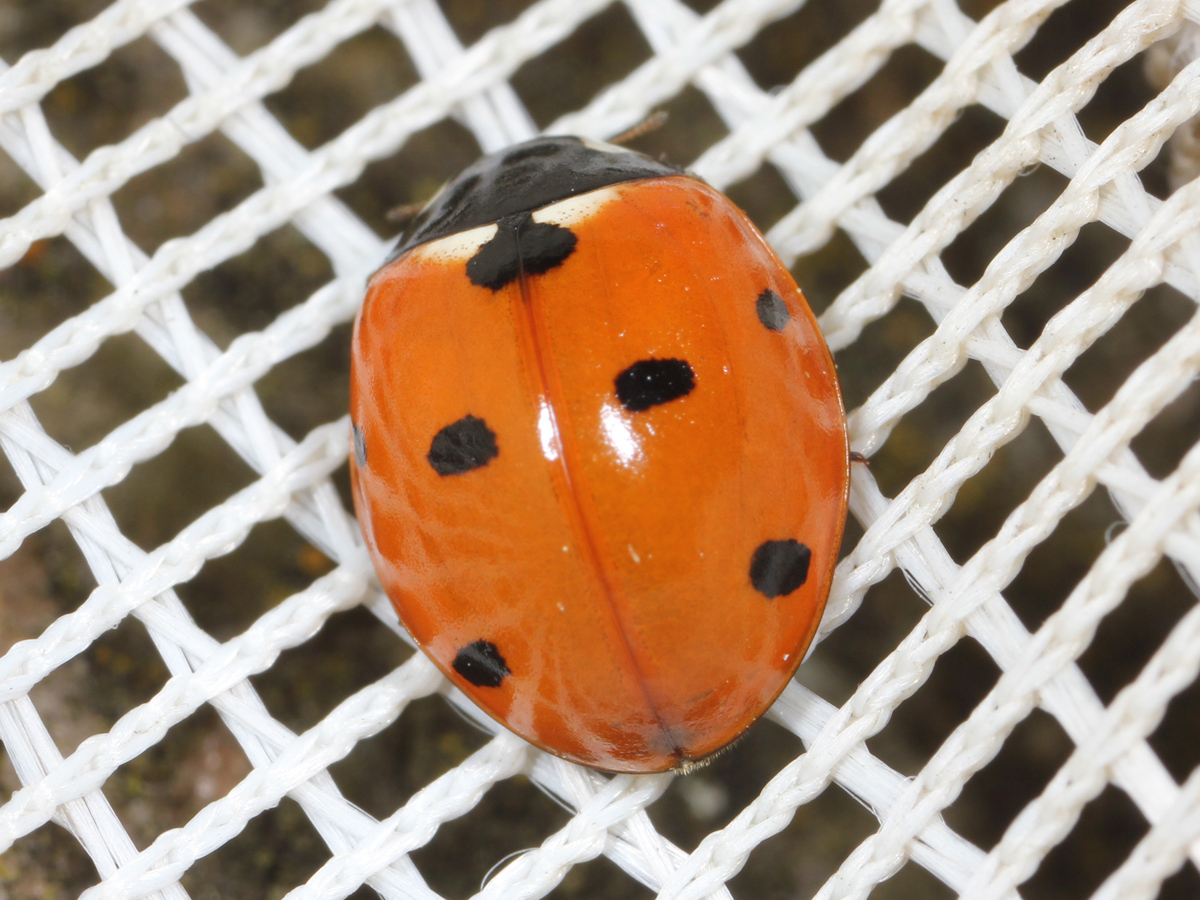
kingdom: Animalia
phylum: Arthropoda
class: Insecta
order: Coleoptera
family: Coccinellidae
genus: Coccinella
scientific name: Coccinella septempunctata
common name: Sevenspotted lady beetle
